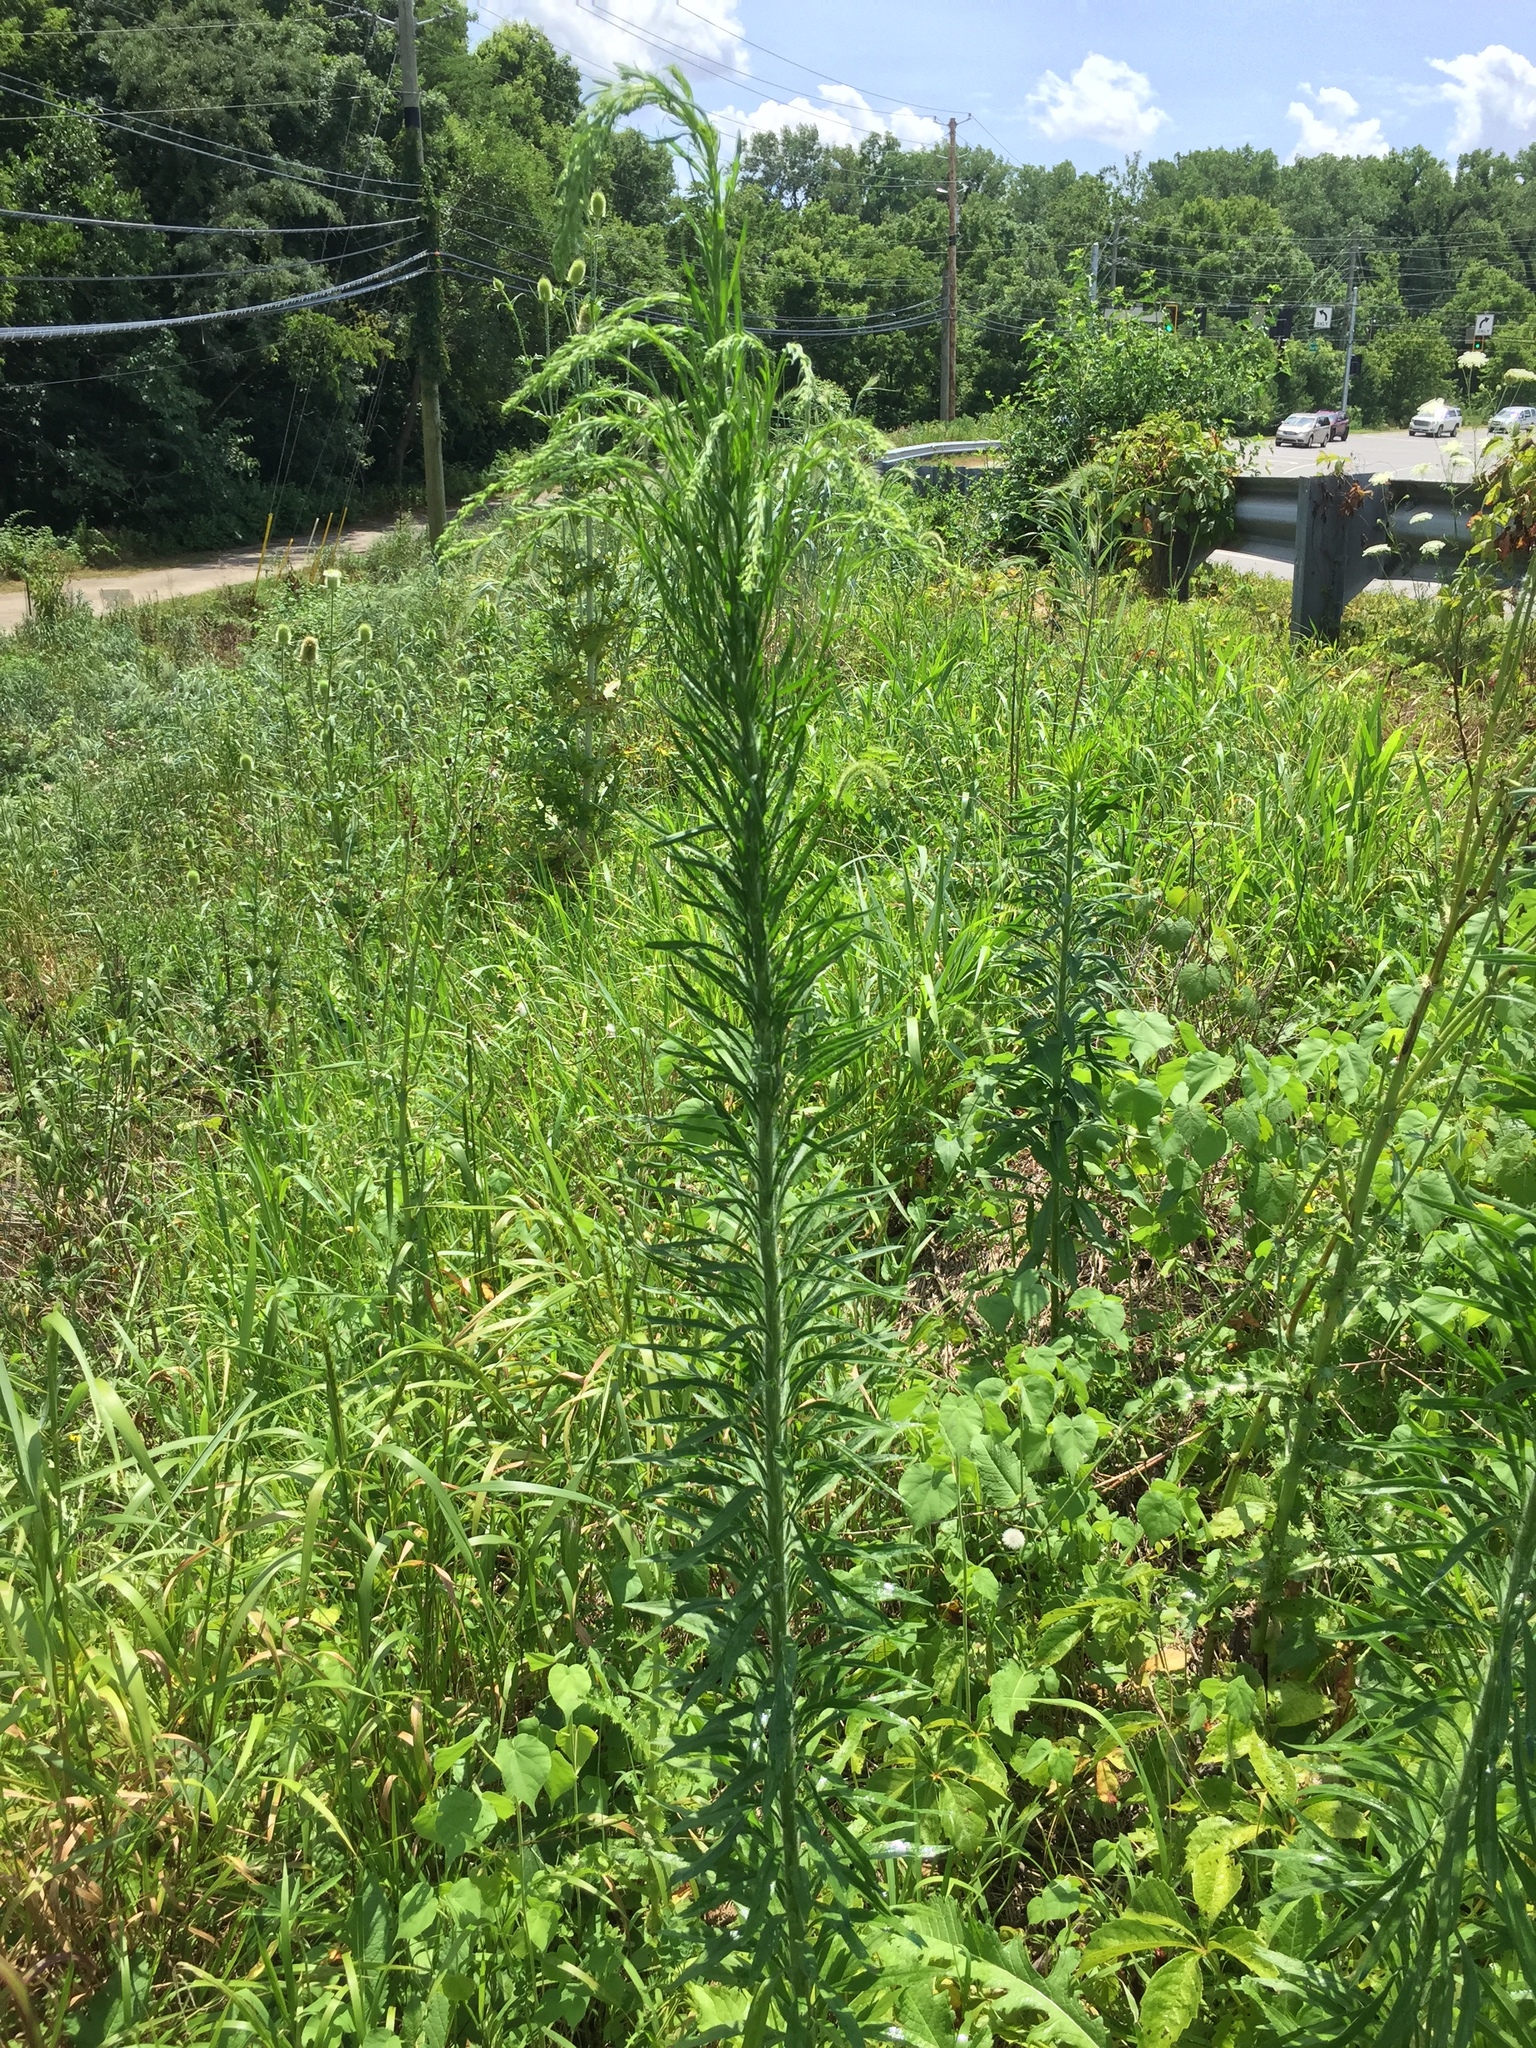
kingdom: Plantae
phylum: Tracheophyta
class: Magnoliopsida
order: Asterales
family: Asteraceae
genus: Erigeron
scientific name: Erigeron canadensis
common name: Canadian fleabane
